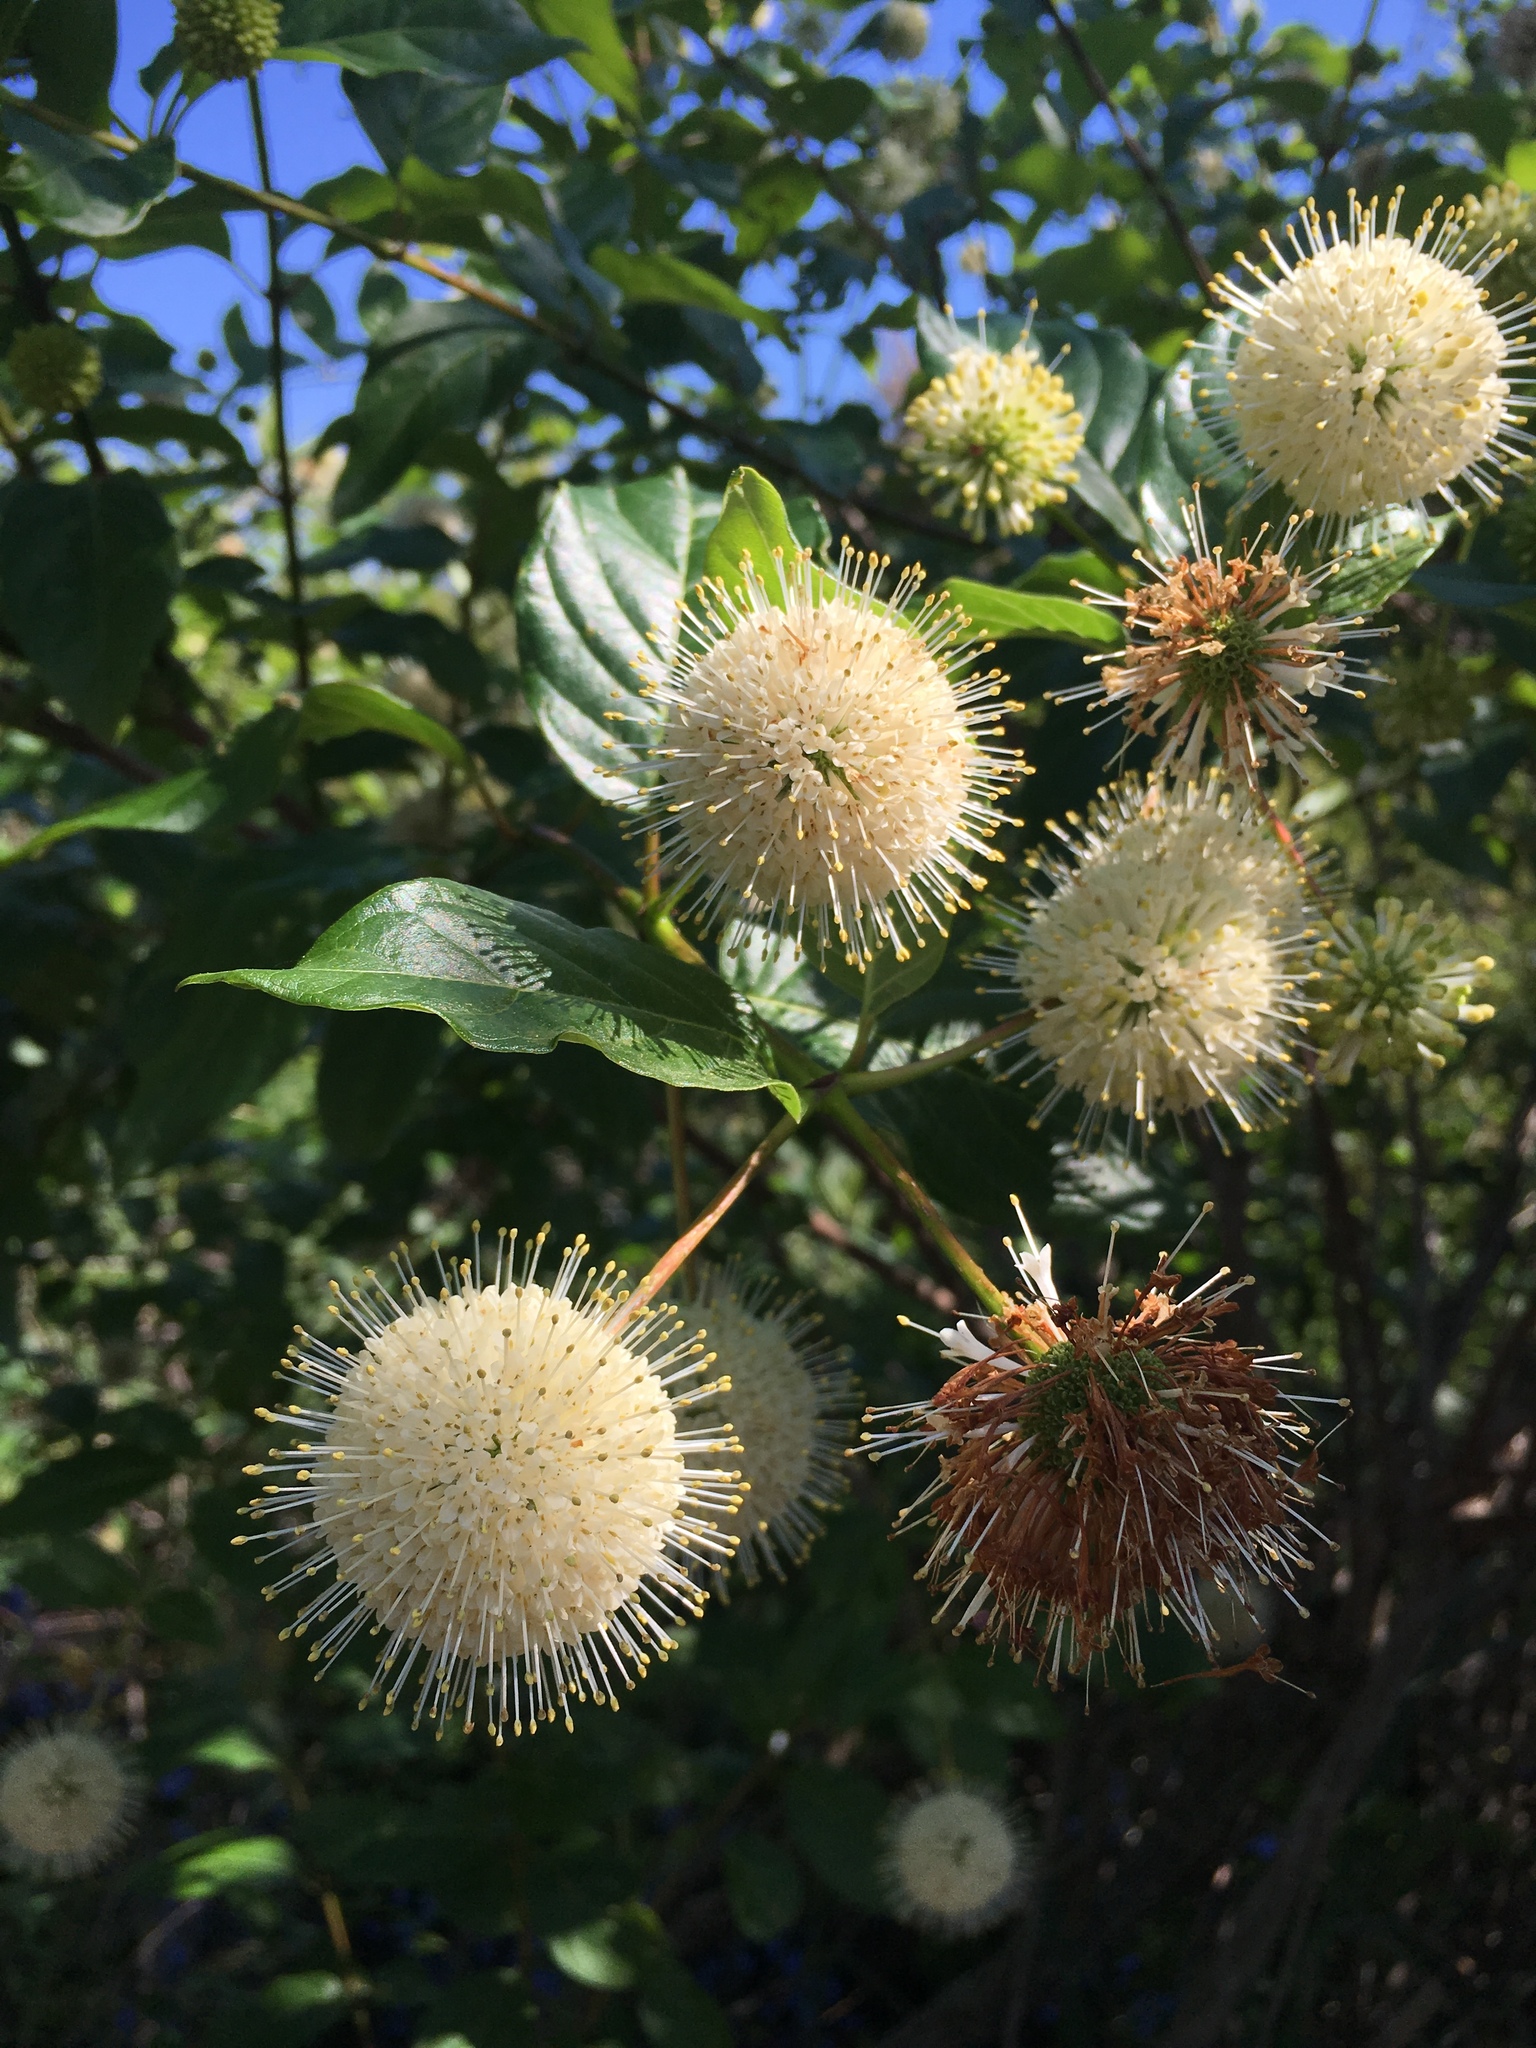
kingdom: Plantae
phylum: Tracheophyta
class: Magnoliopsida
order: Gentianales
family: Rubiaceae
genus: Cephalanthus
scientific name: Cephalanthus occidentalis
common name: Button-willow
